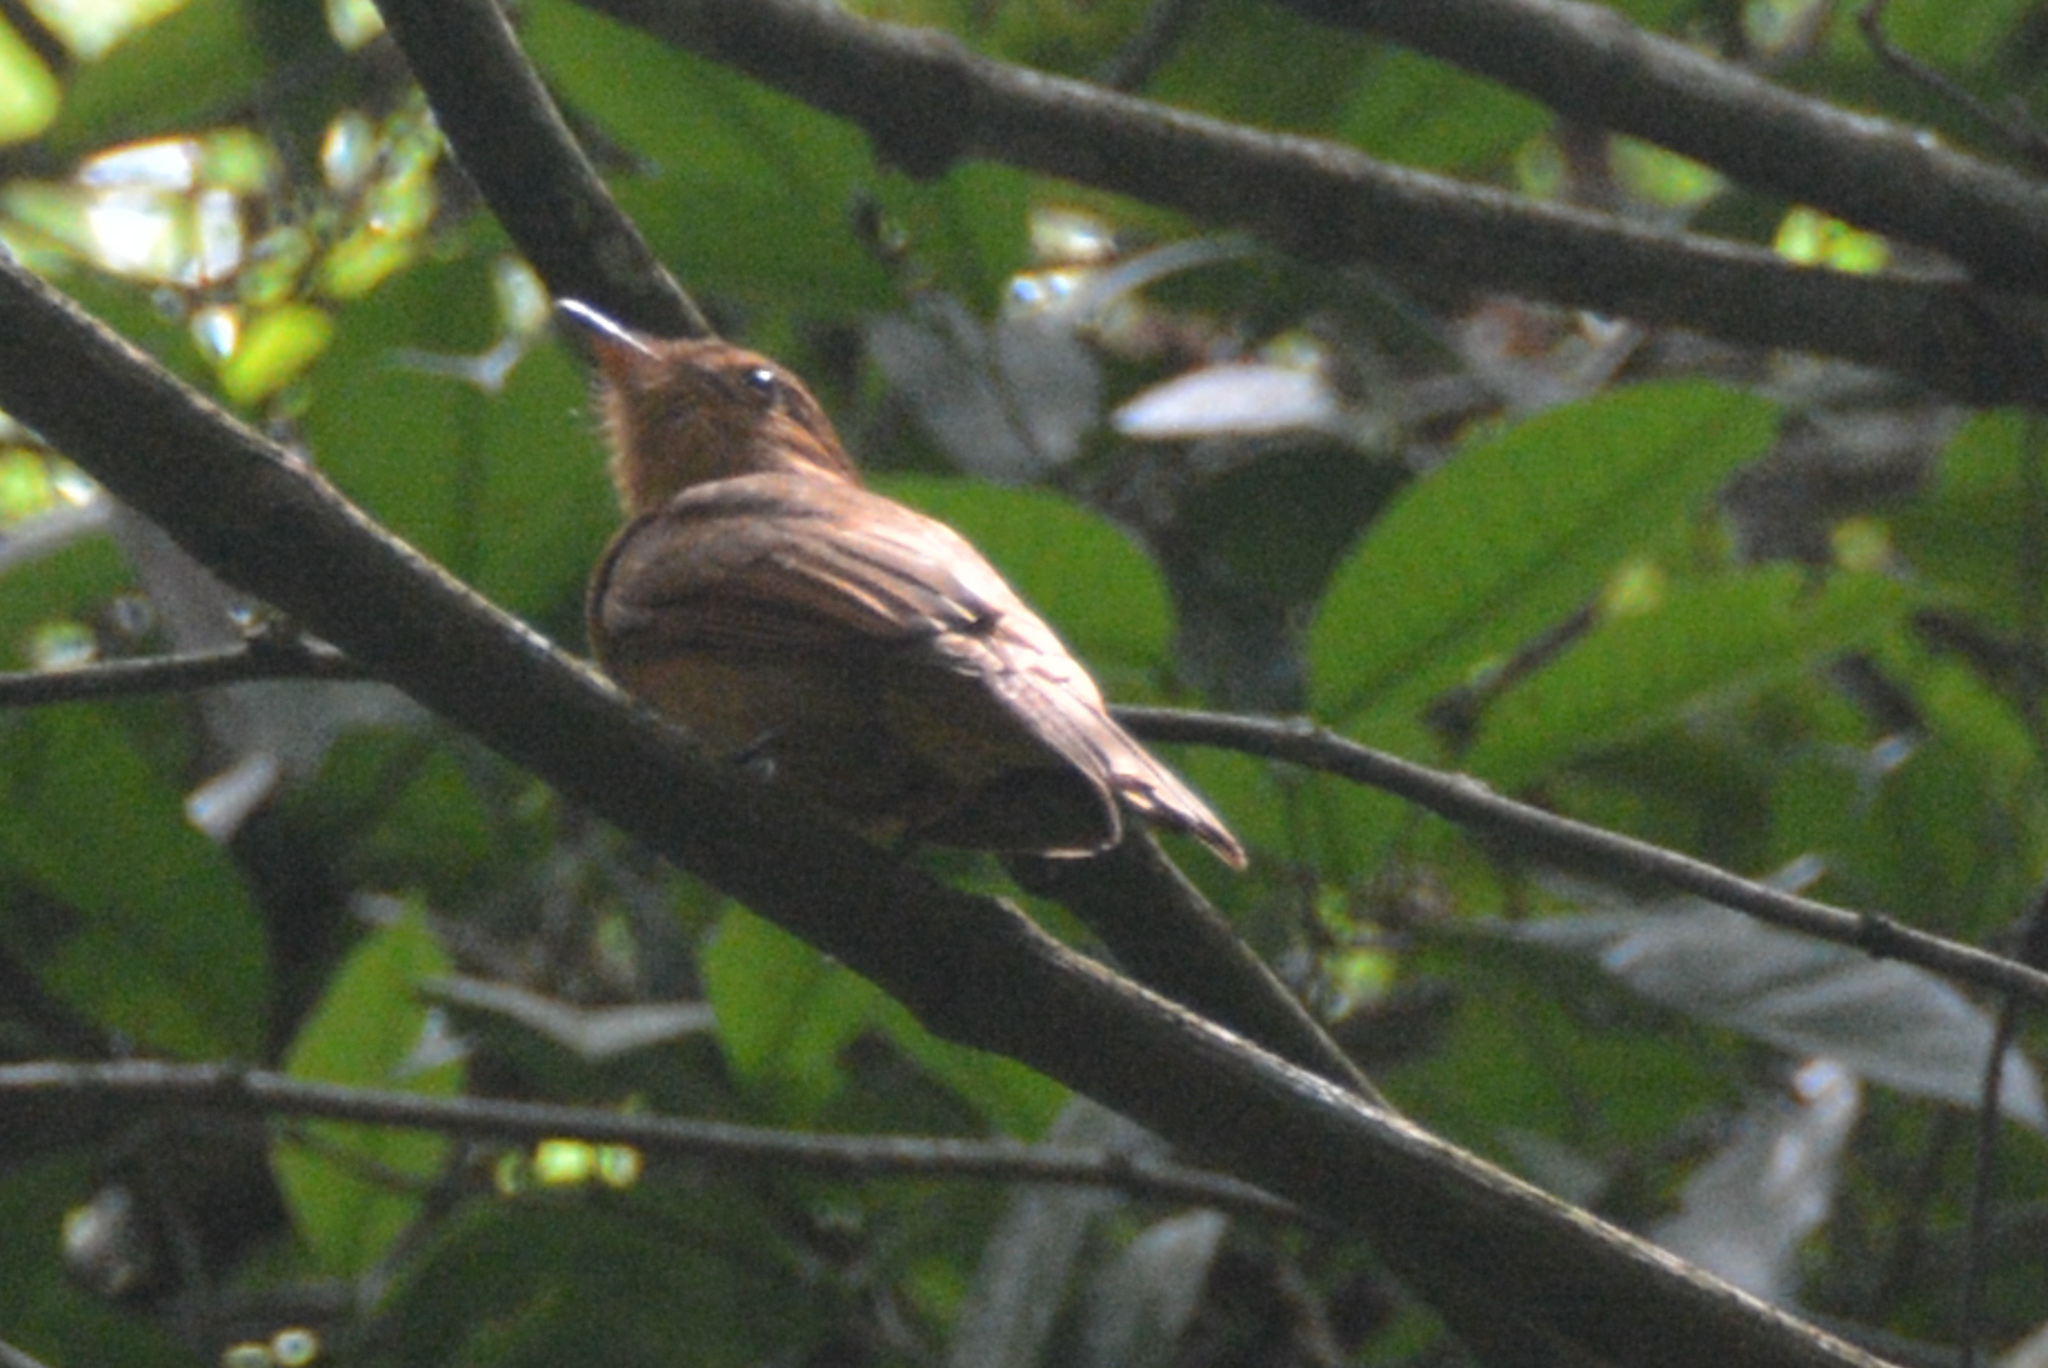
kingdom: Animalia
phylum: Chordata
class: Aves
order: Passeriformes
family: Tyrannidae
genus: Rhytipterna
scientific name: Rhytipterna holerythra
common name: Rufous mourner
